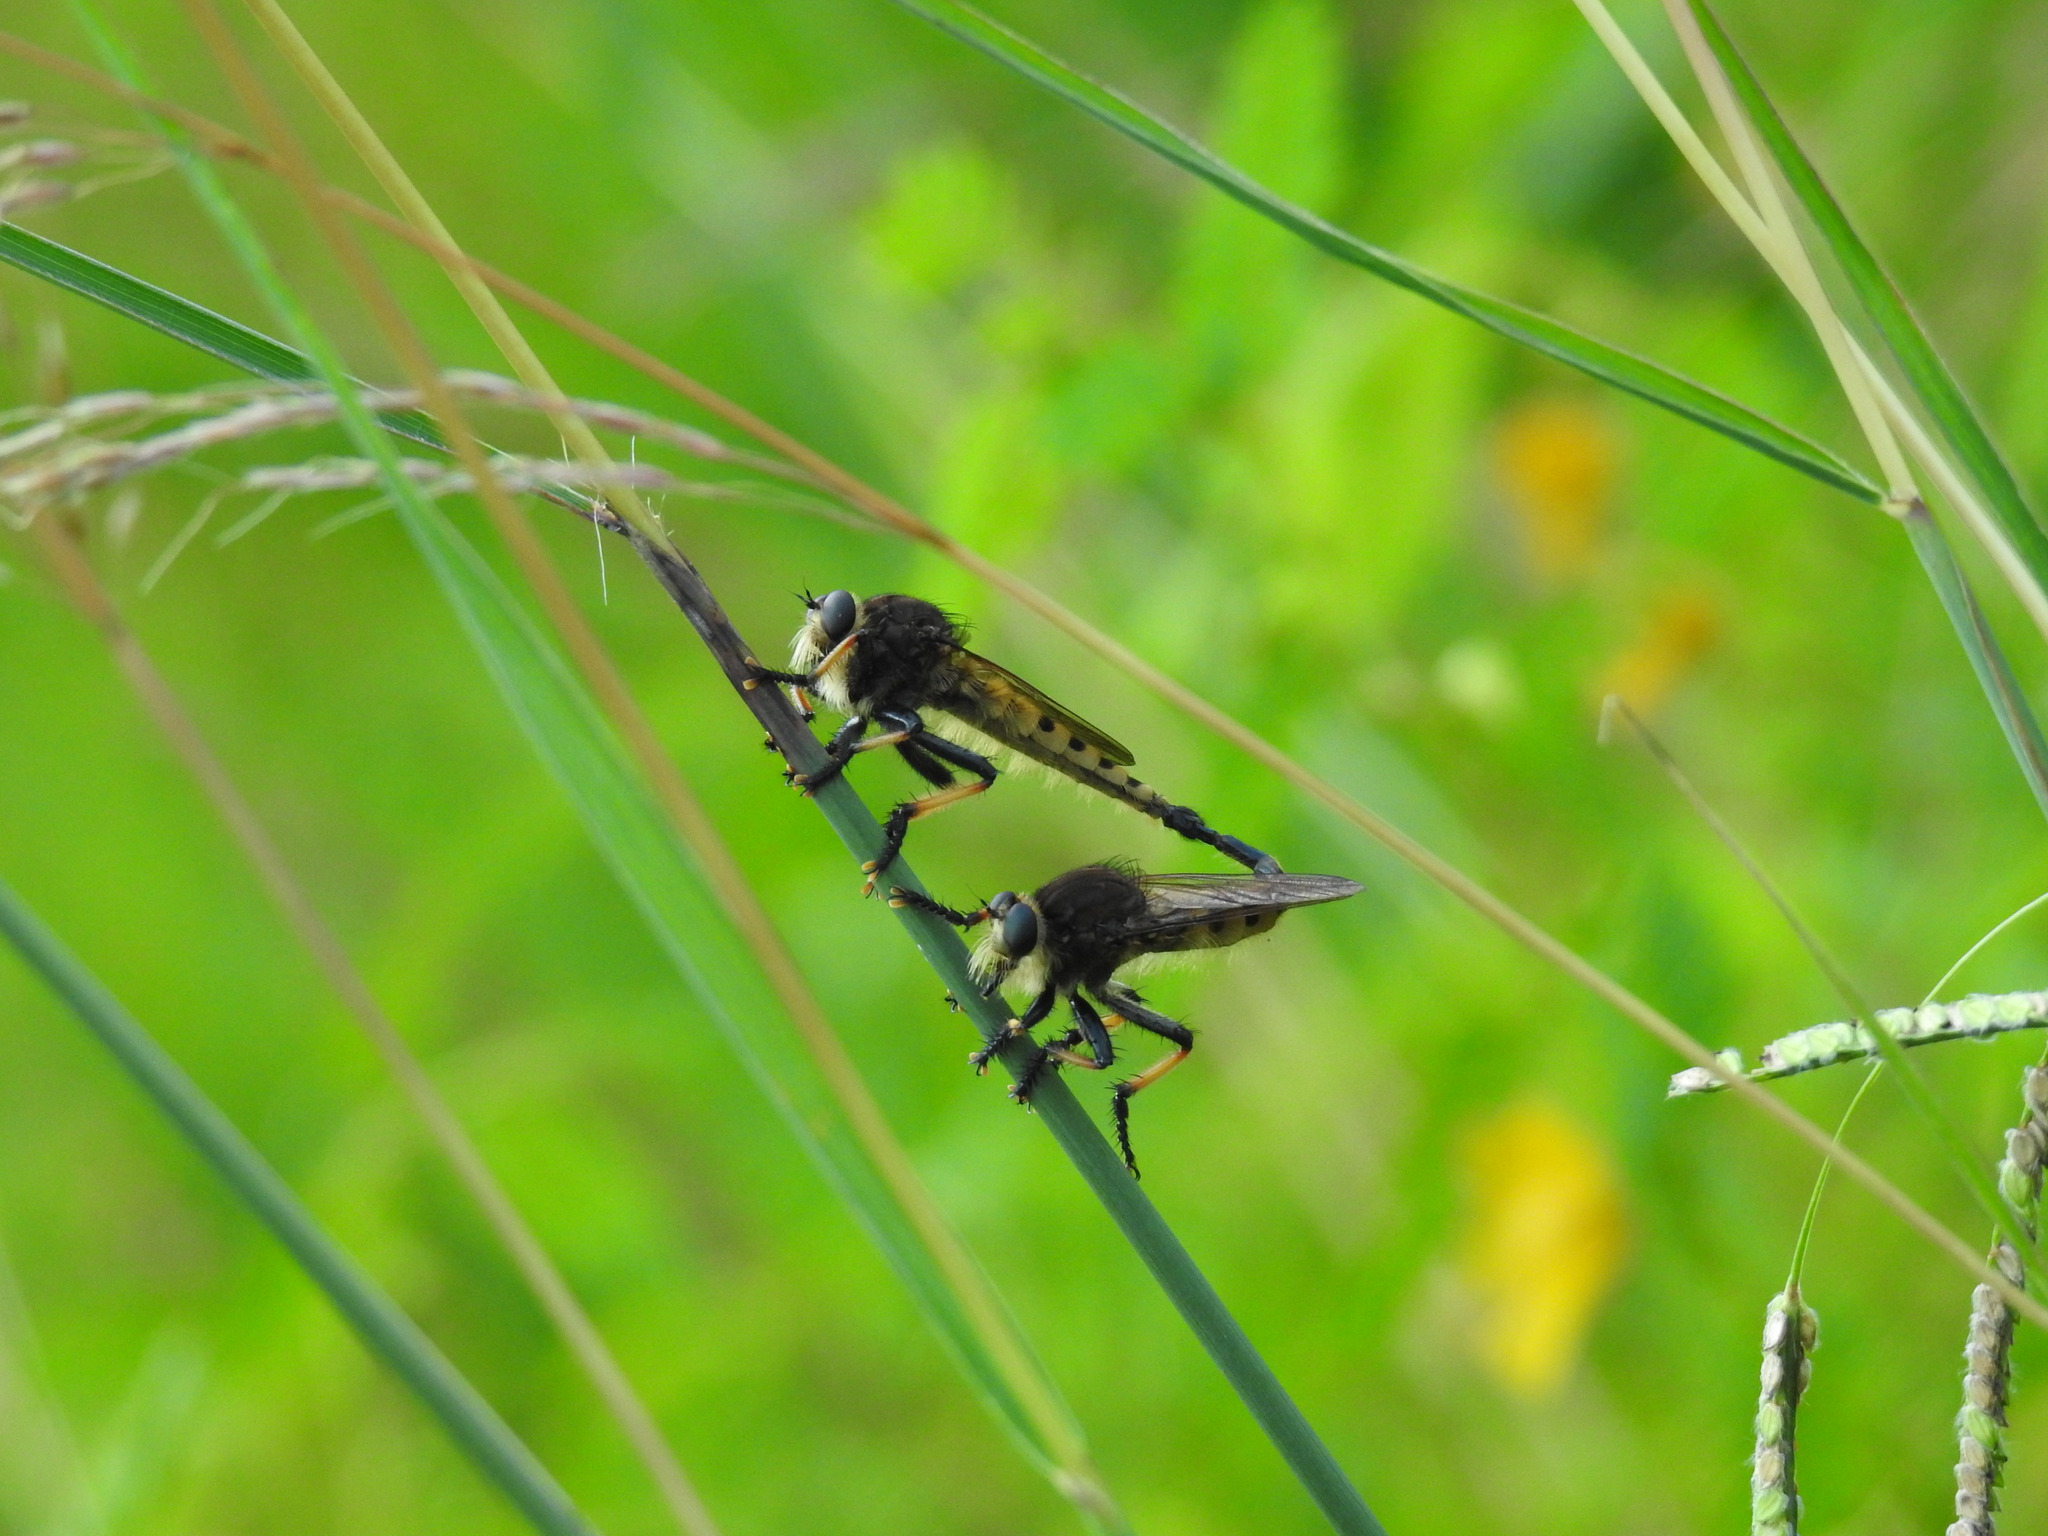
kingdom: Animalia
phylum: Arthropoda
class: Insecta
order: Diptera
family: Asilidae
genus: Promachus
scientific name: Promachus rufipes
